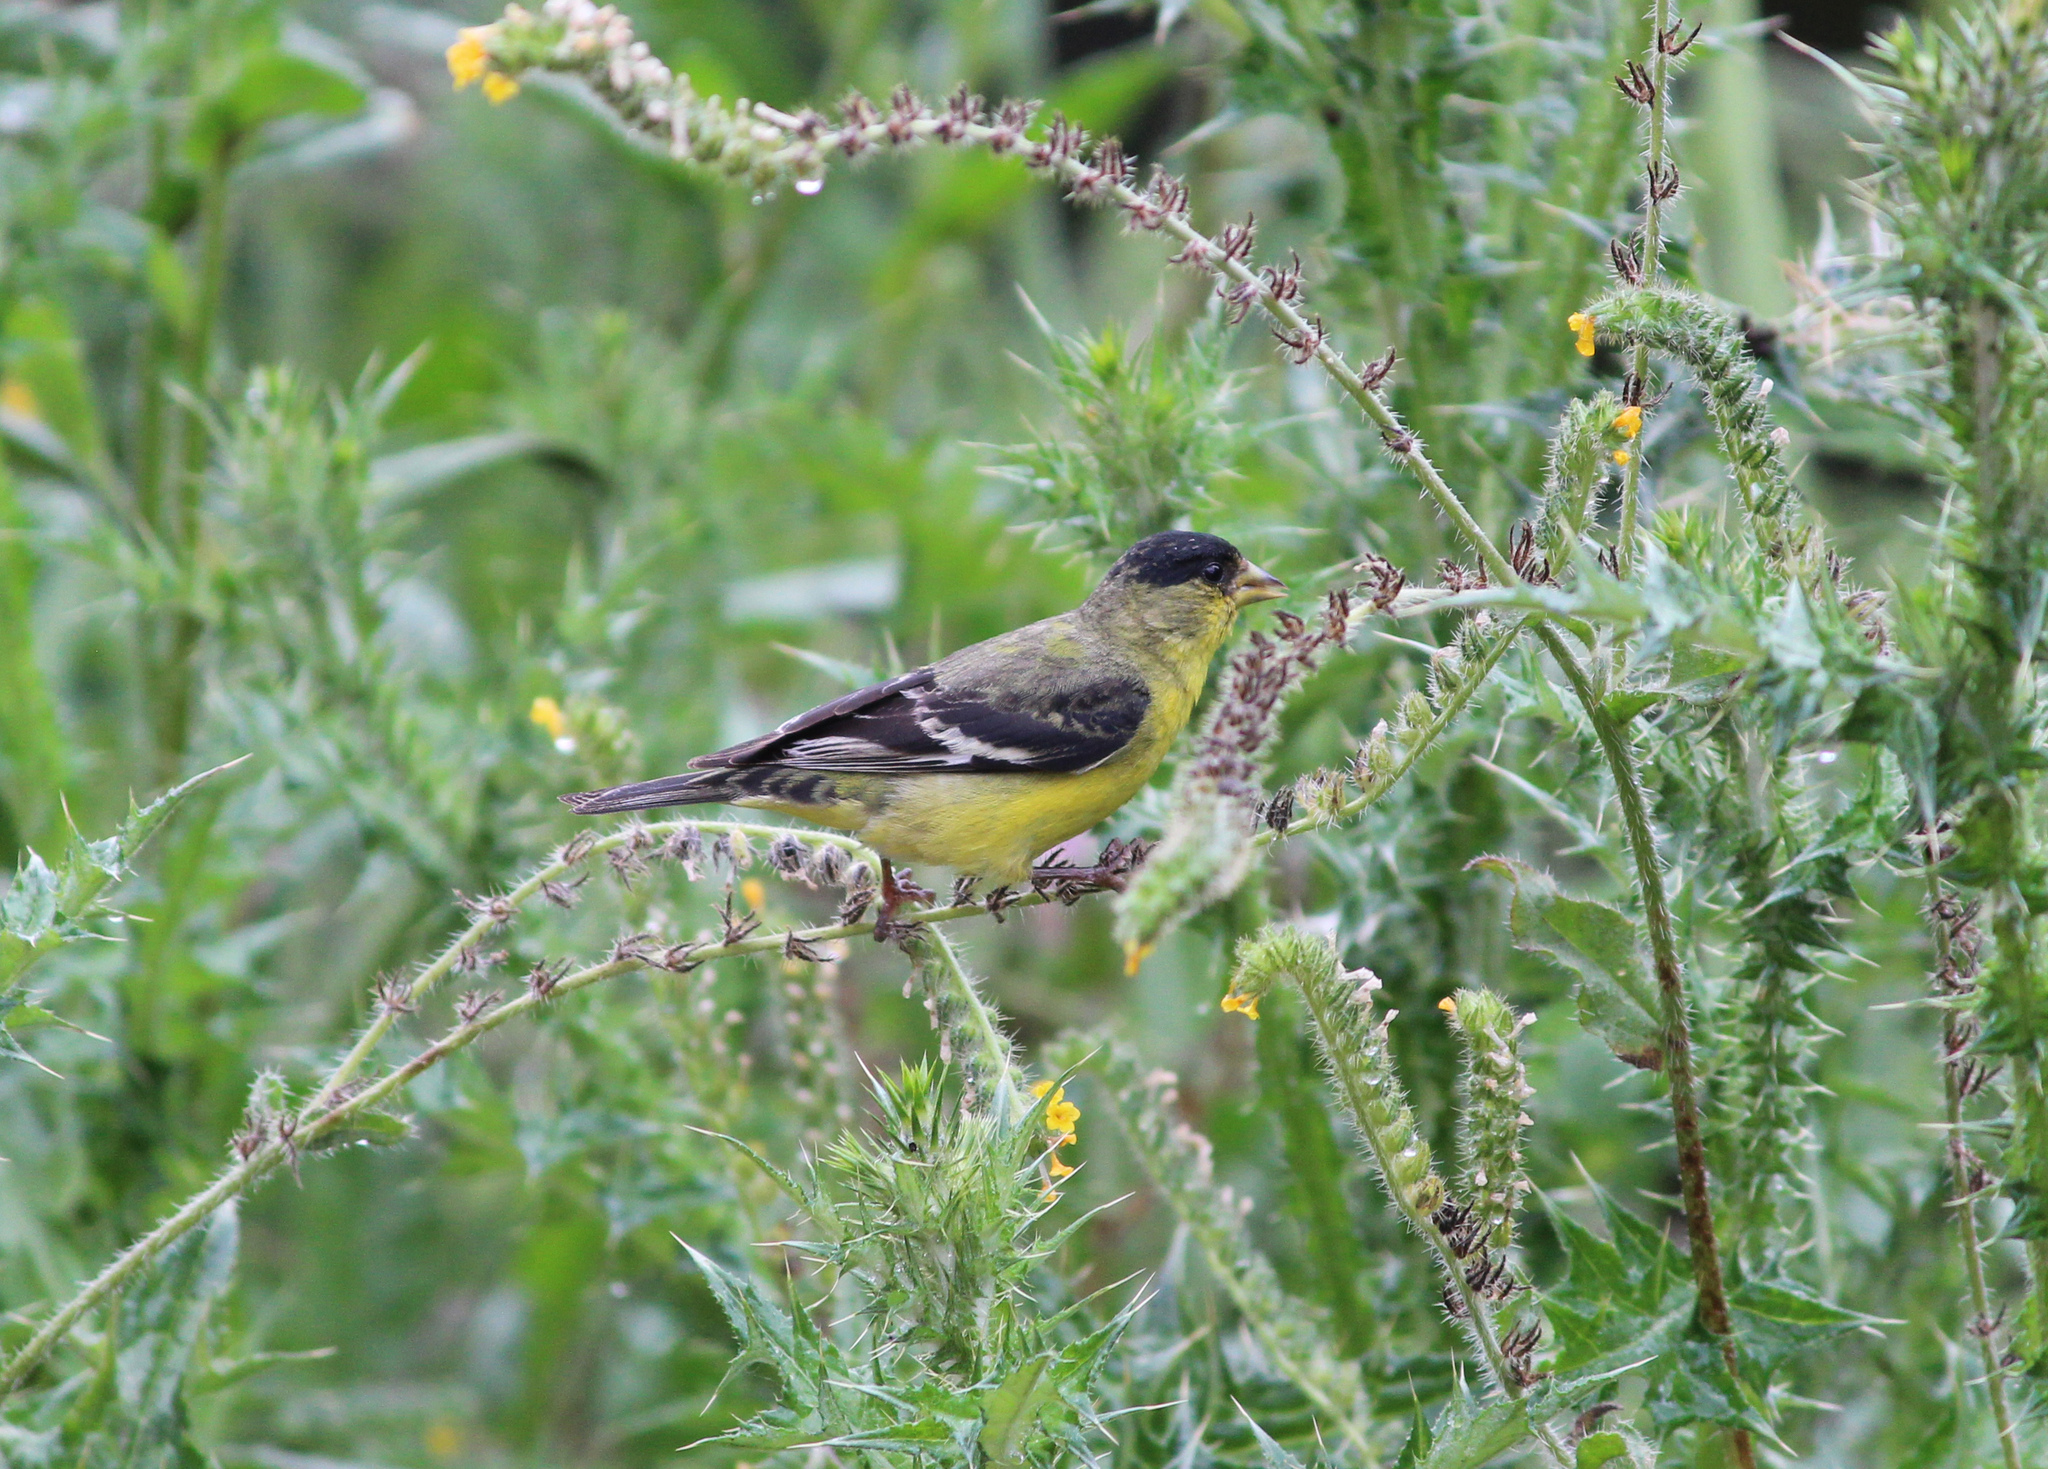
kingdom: Animalia
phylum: Chordata
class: Aves
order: Passeriformes
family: Fringillidae
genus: Spinus
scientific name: Spinus psaltria
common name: Lesser goldfinch
